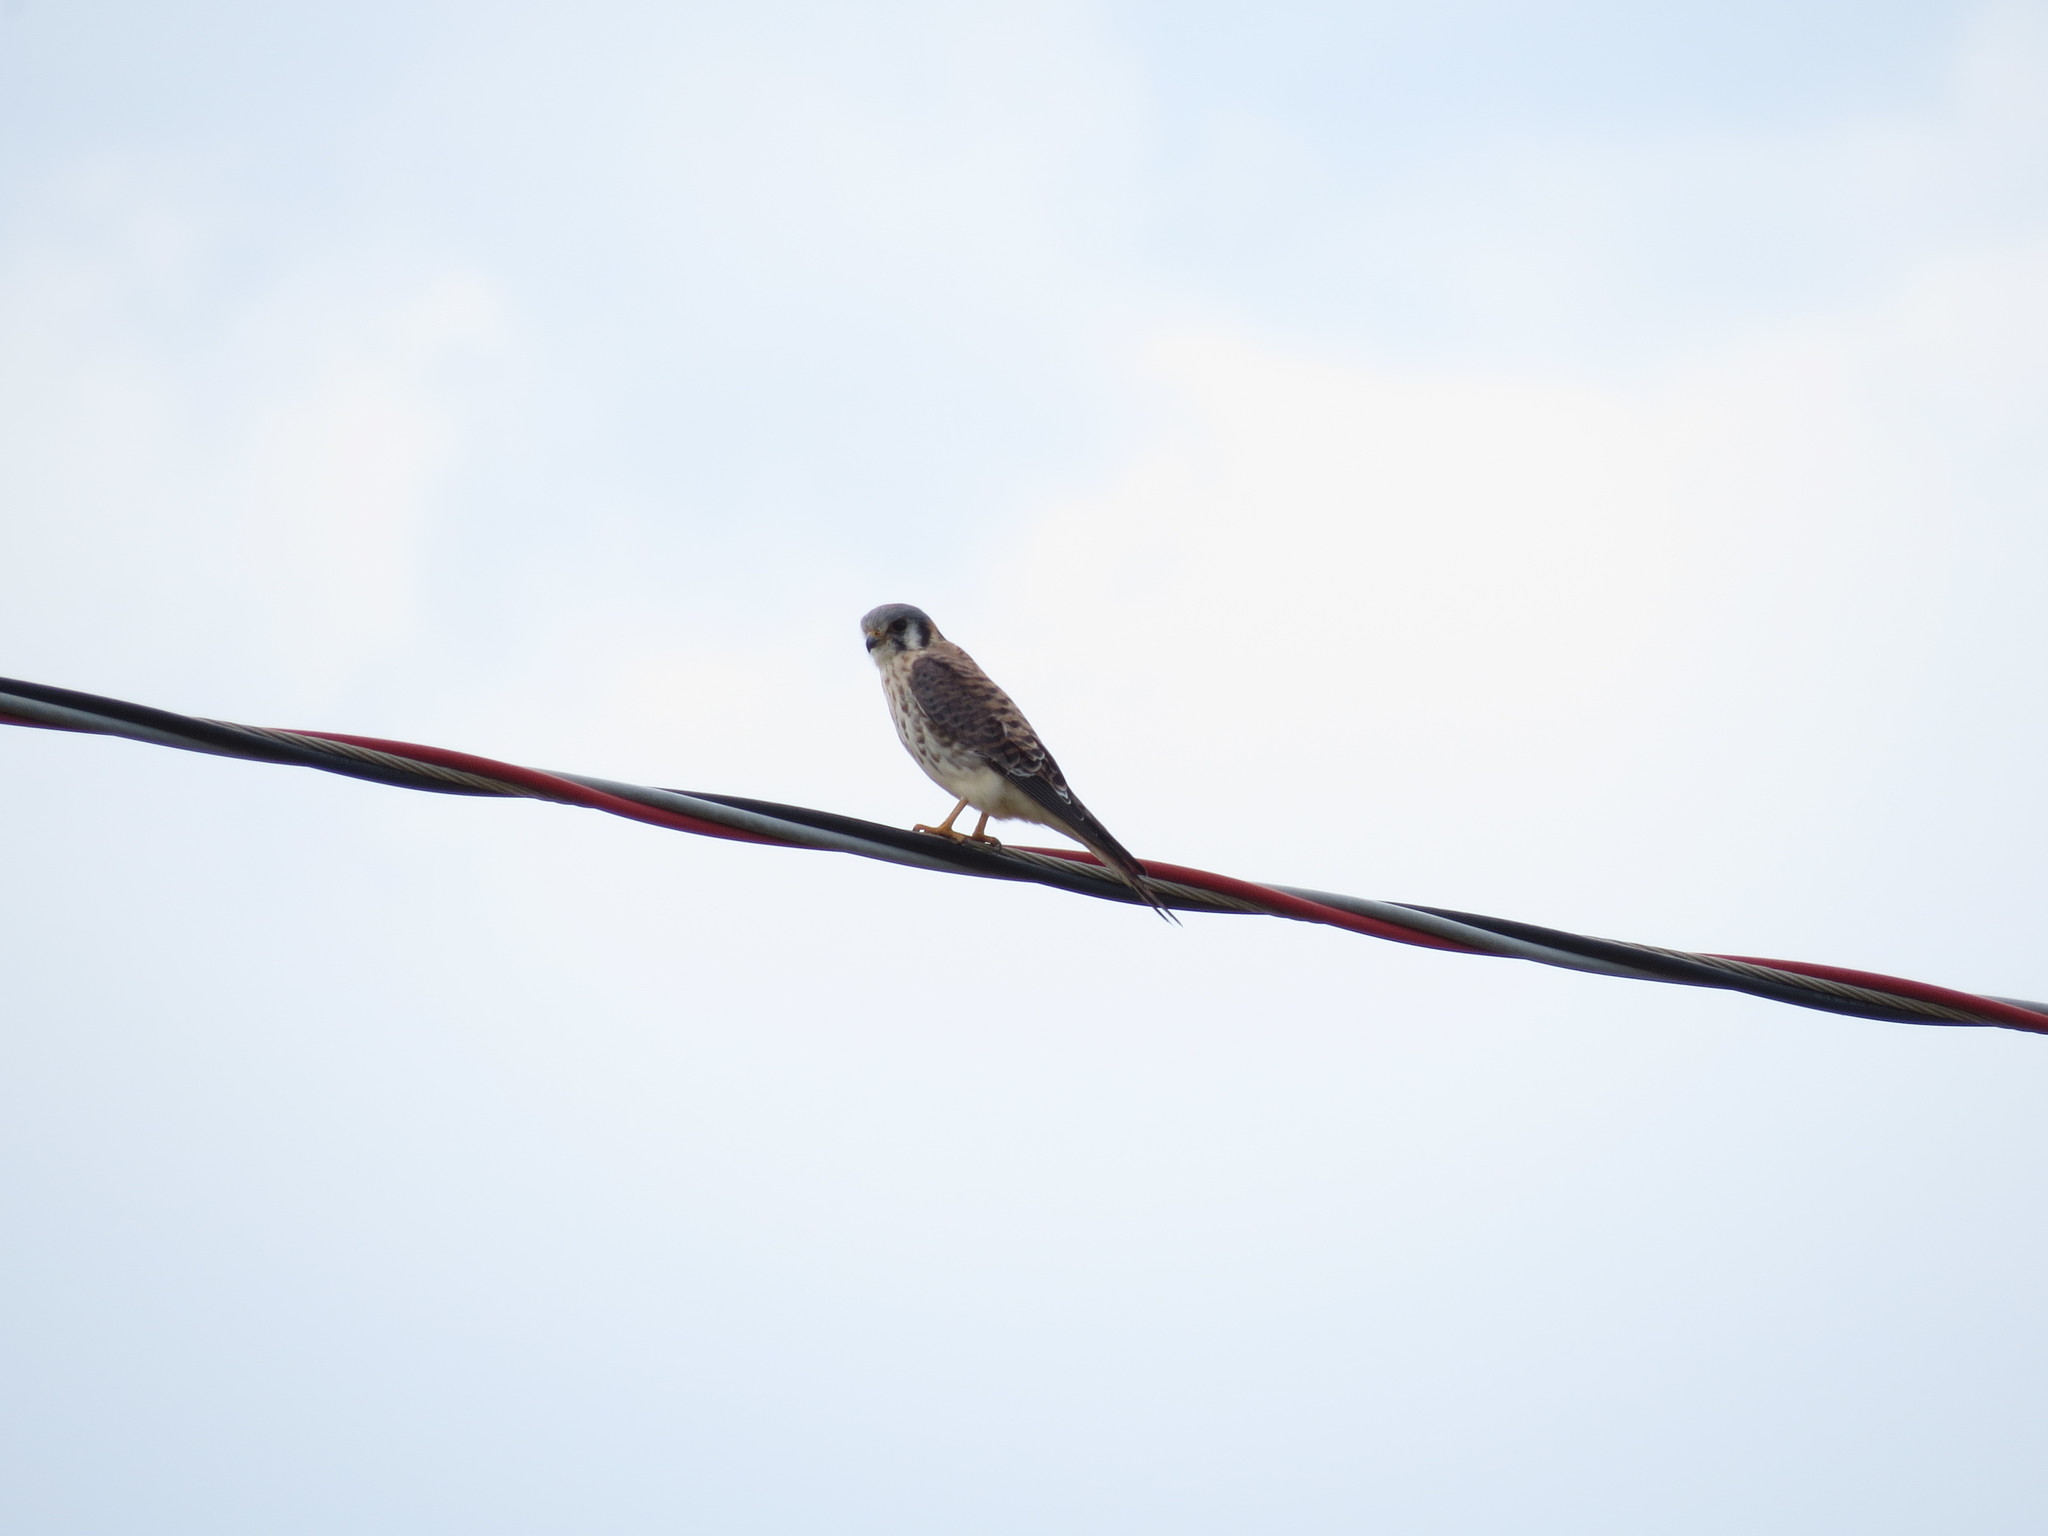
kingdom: Animalia
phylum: Chordata
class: Aves
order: Falconiformes
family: Falconidae
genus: Falco
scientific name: Falco sparverius
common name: American kestrel
